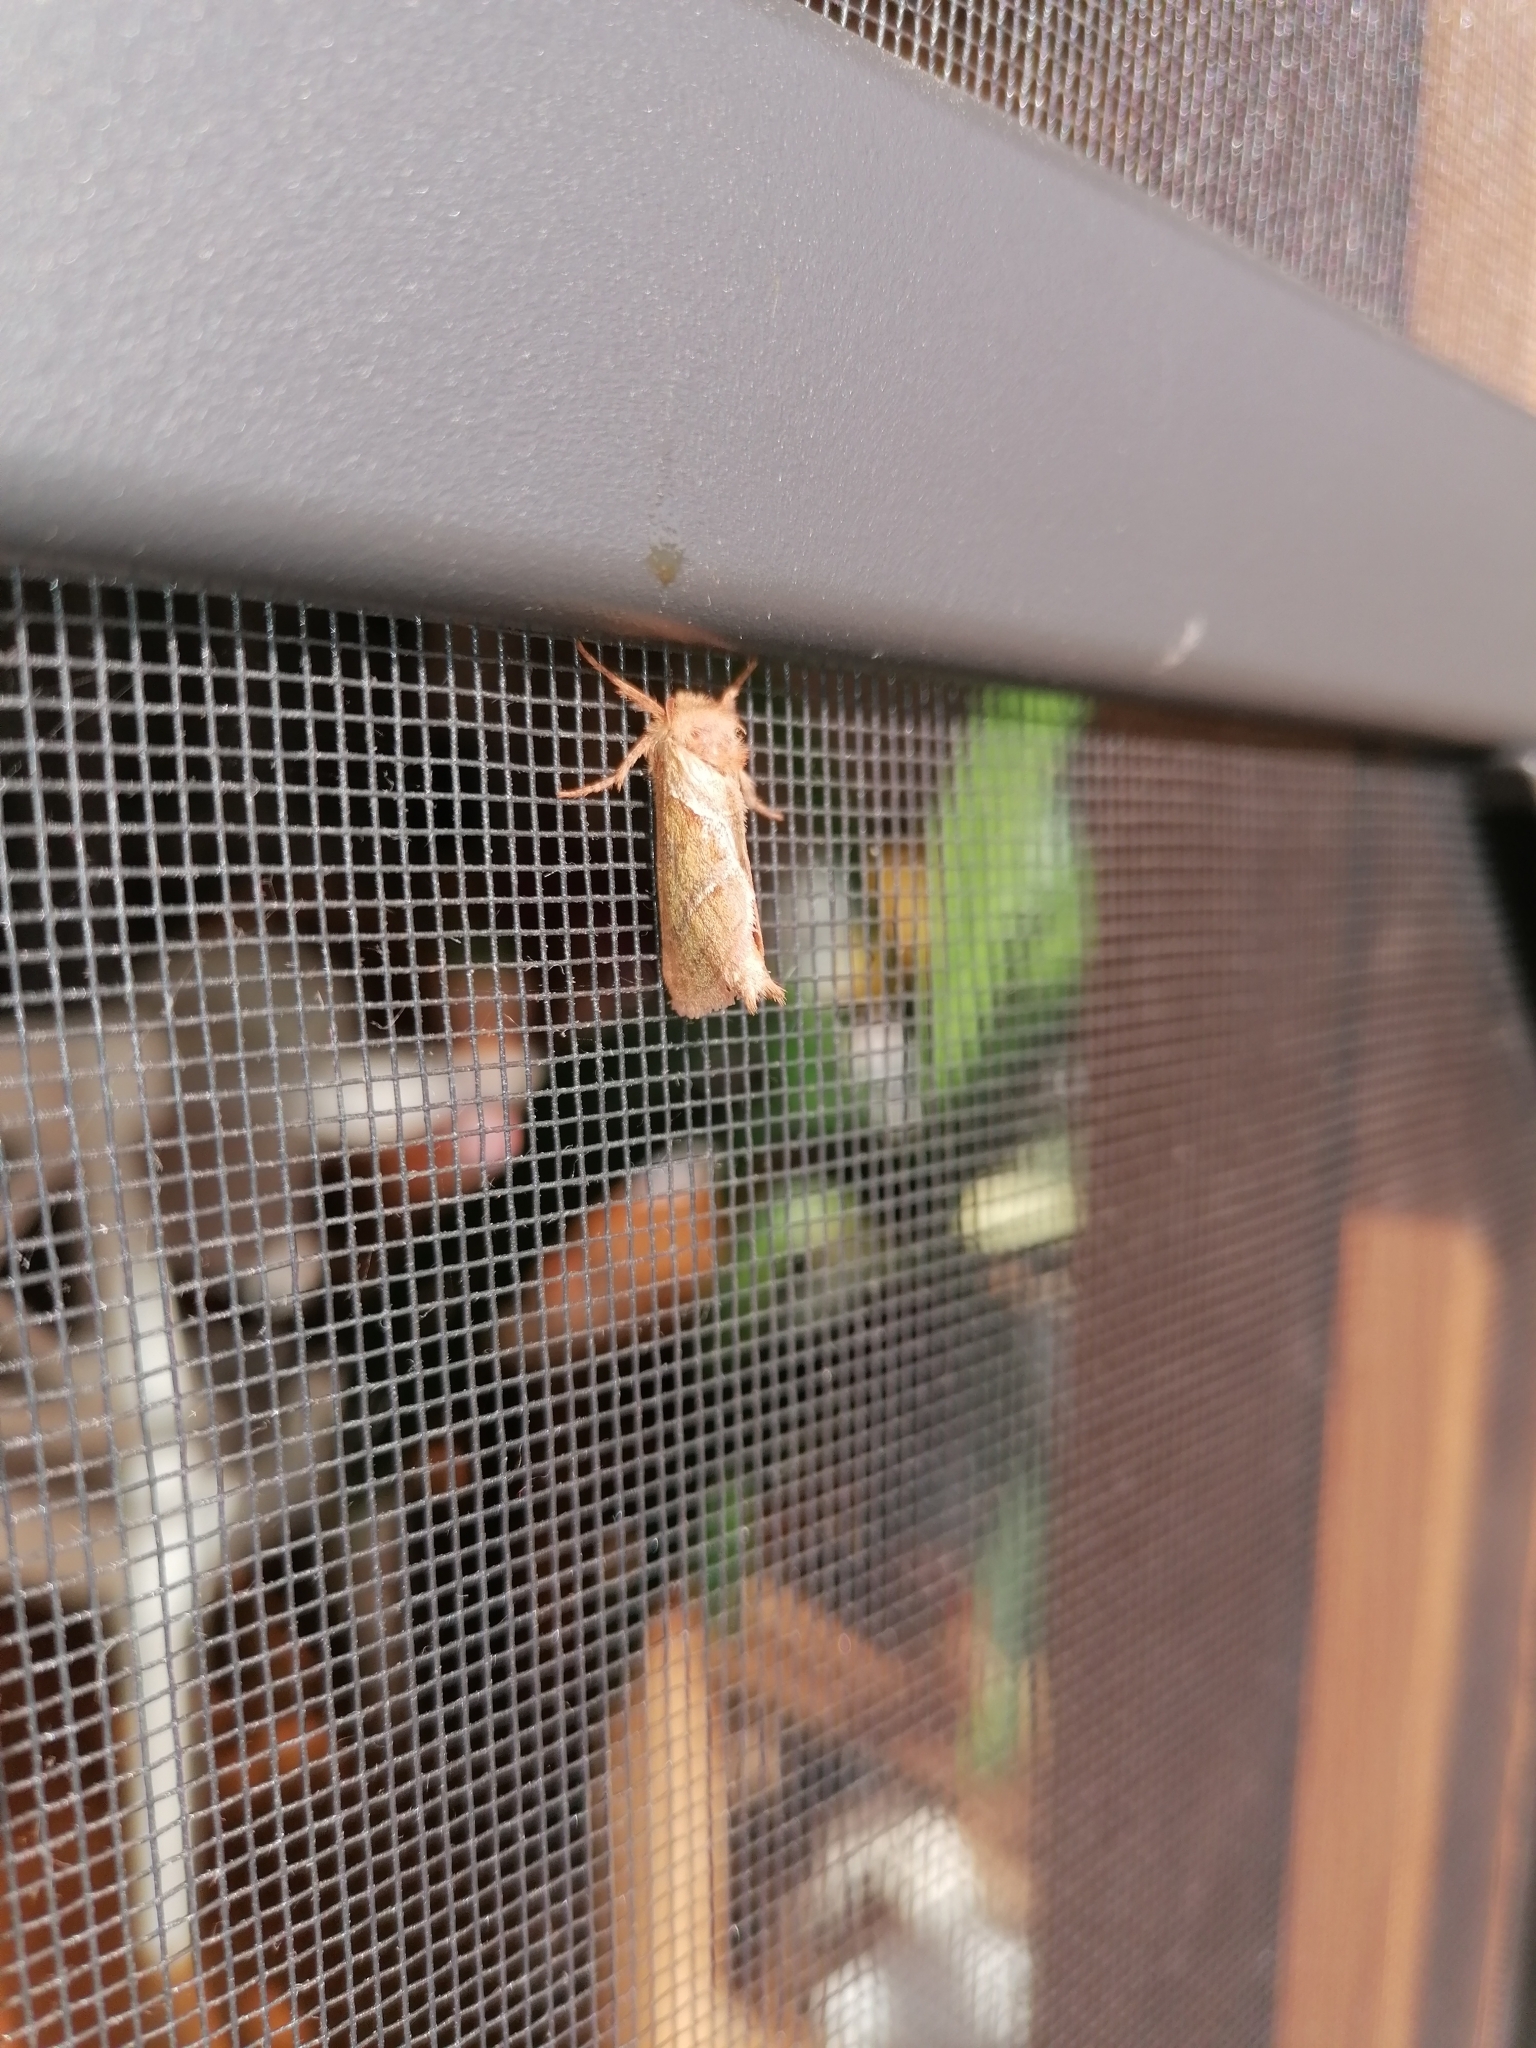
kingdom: Animalia
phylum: Arthropoda
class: Insecta
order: Lepidoptera
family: Hepialidae
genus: Triodia
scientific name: Triodia sylvina
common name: Orange swift
